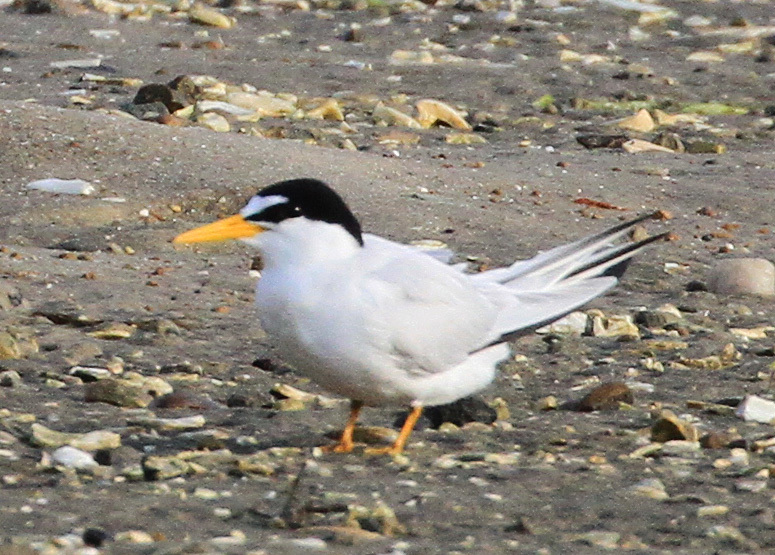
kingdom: Animalia
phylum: Chordata
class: Aves
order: Charadriiformes
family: Laridae
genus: Sternula
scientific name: Sternula antillarum
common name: Least tern
